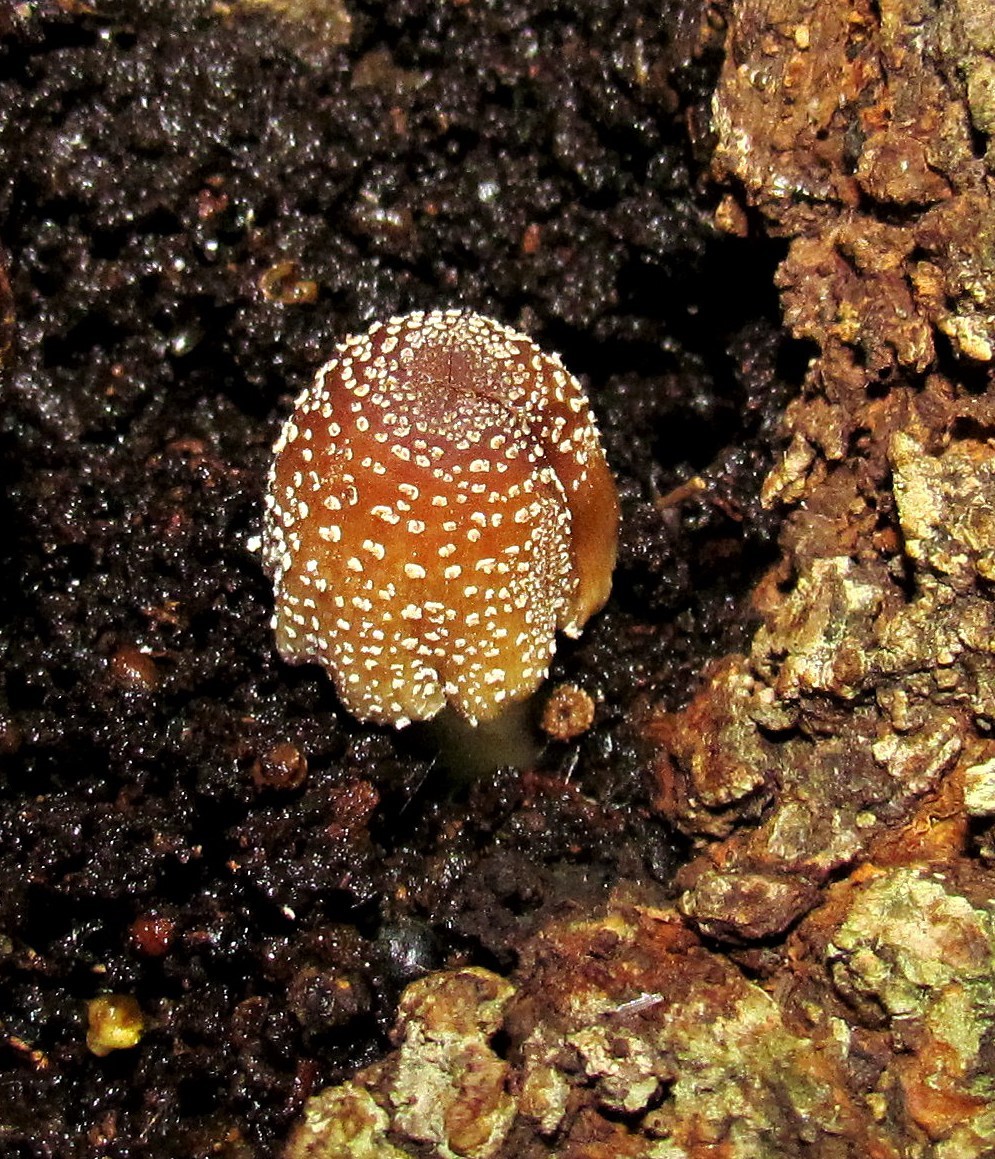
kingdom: Fungi
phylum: Basidiomycota
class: Agaricomycetes
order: Agaricales
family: Psathyrellaceae
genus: Coprinellus
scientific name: Coprinellus domesticus
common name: Firerug inkcap
